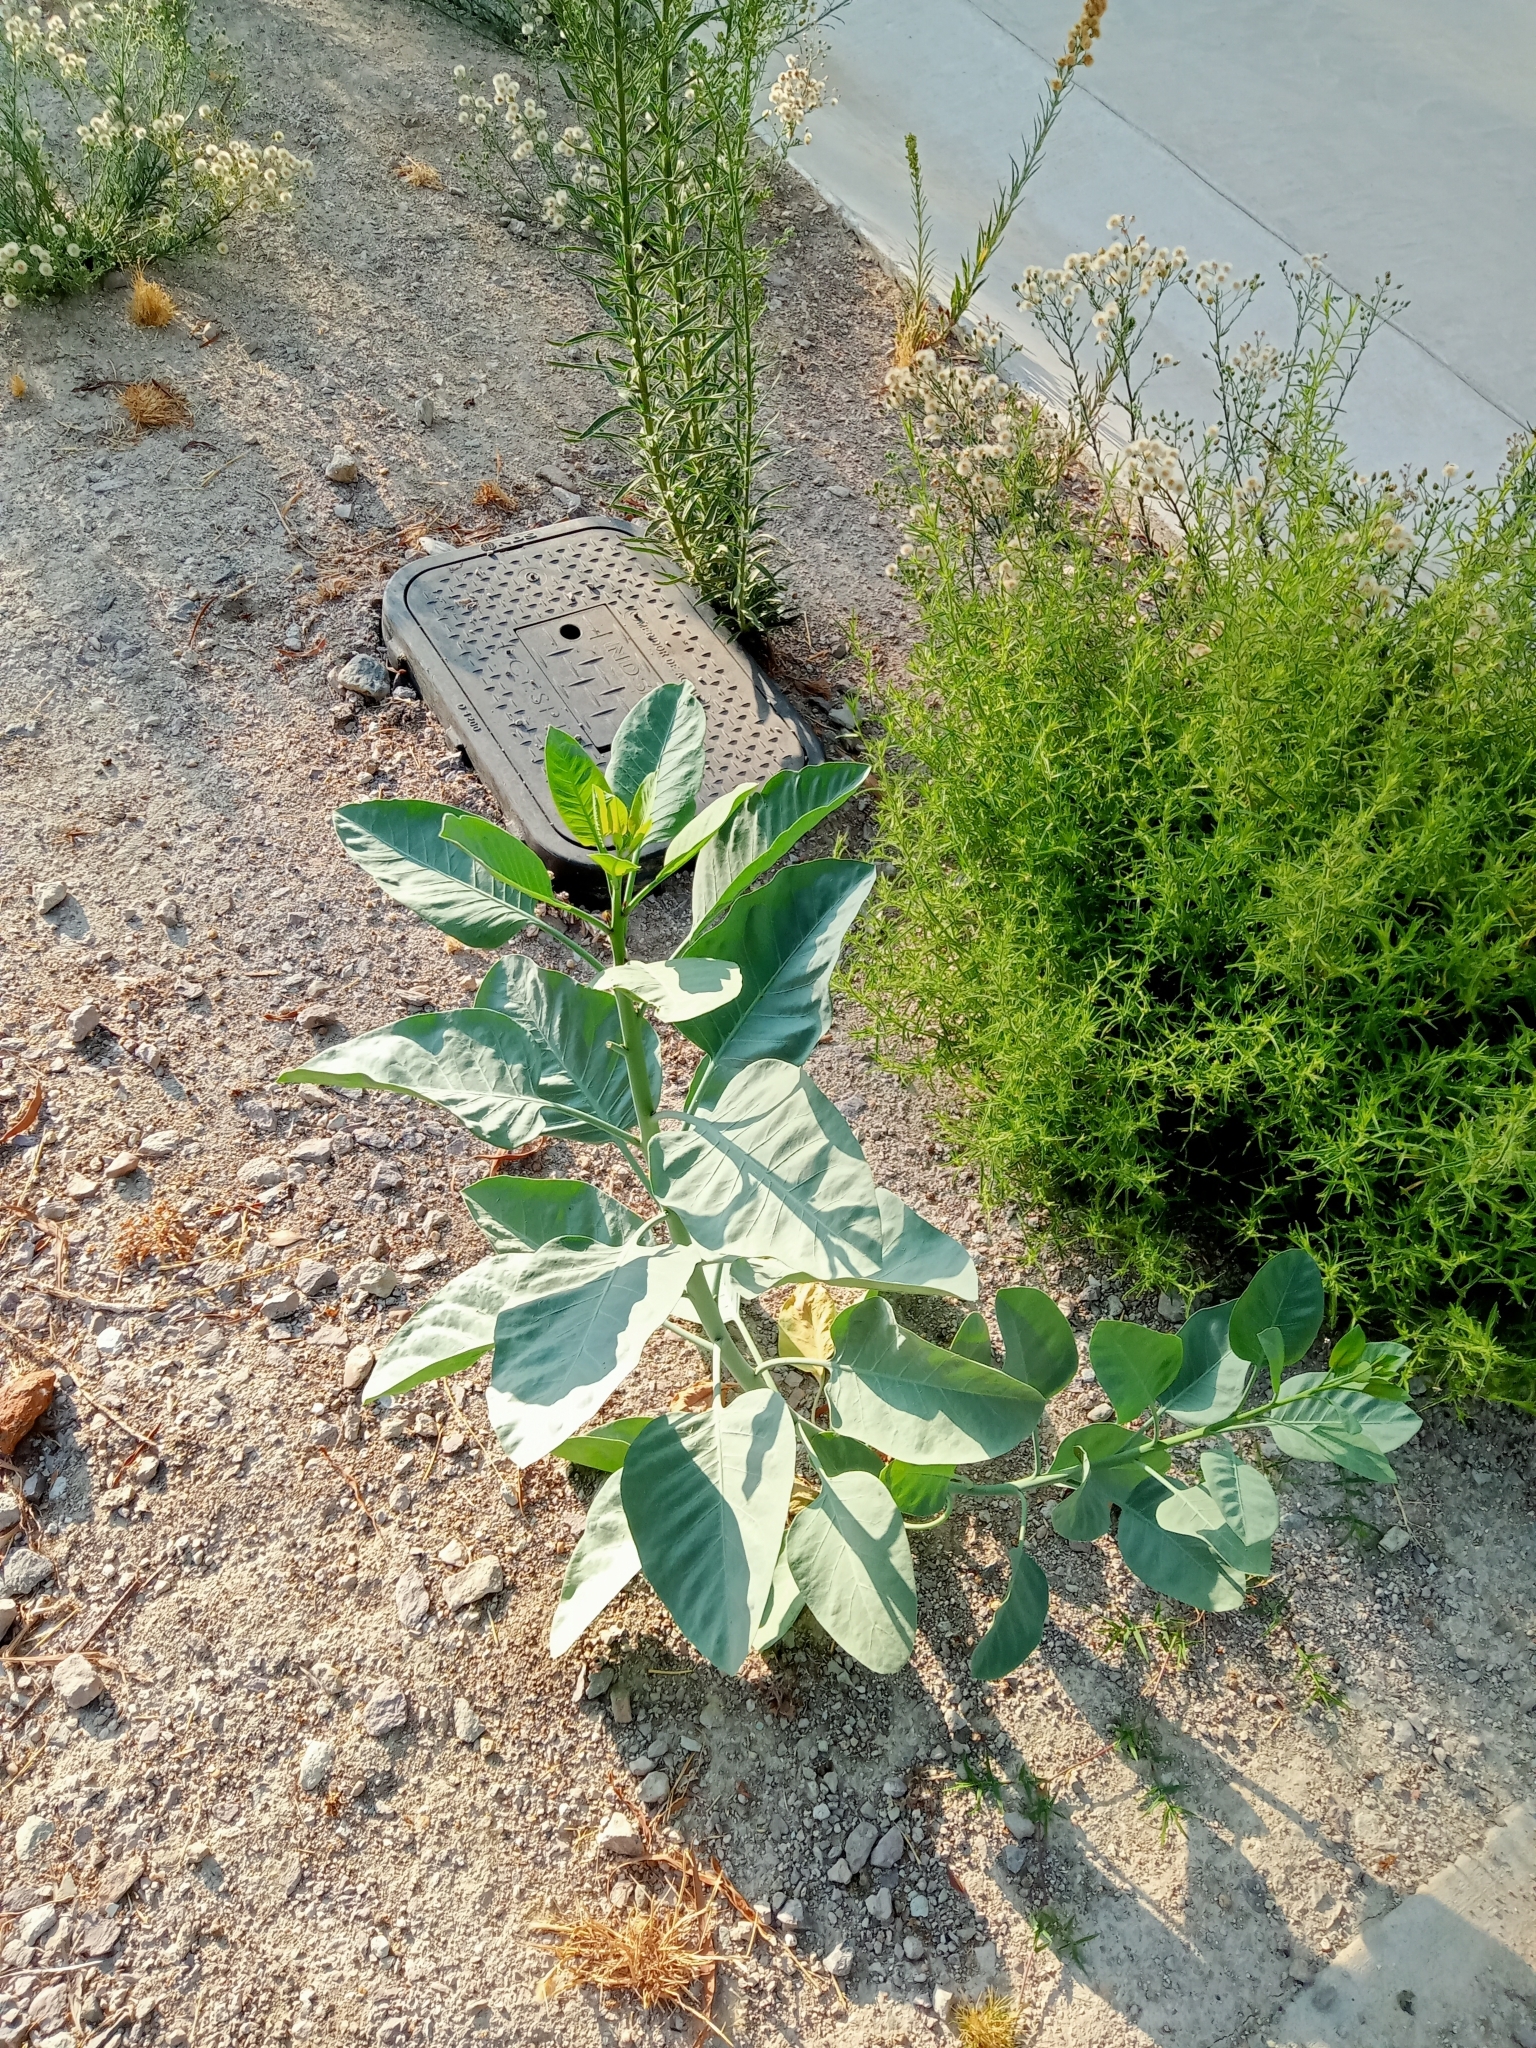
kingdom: Plantae
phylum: Tracheophyta
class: Magnoliopsida
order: Solanales
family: Solanaceae
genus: Nicotiana
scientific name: Nicotiana glauca
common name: Tree tobacco
